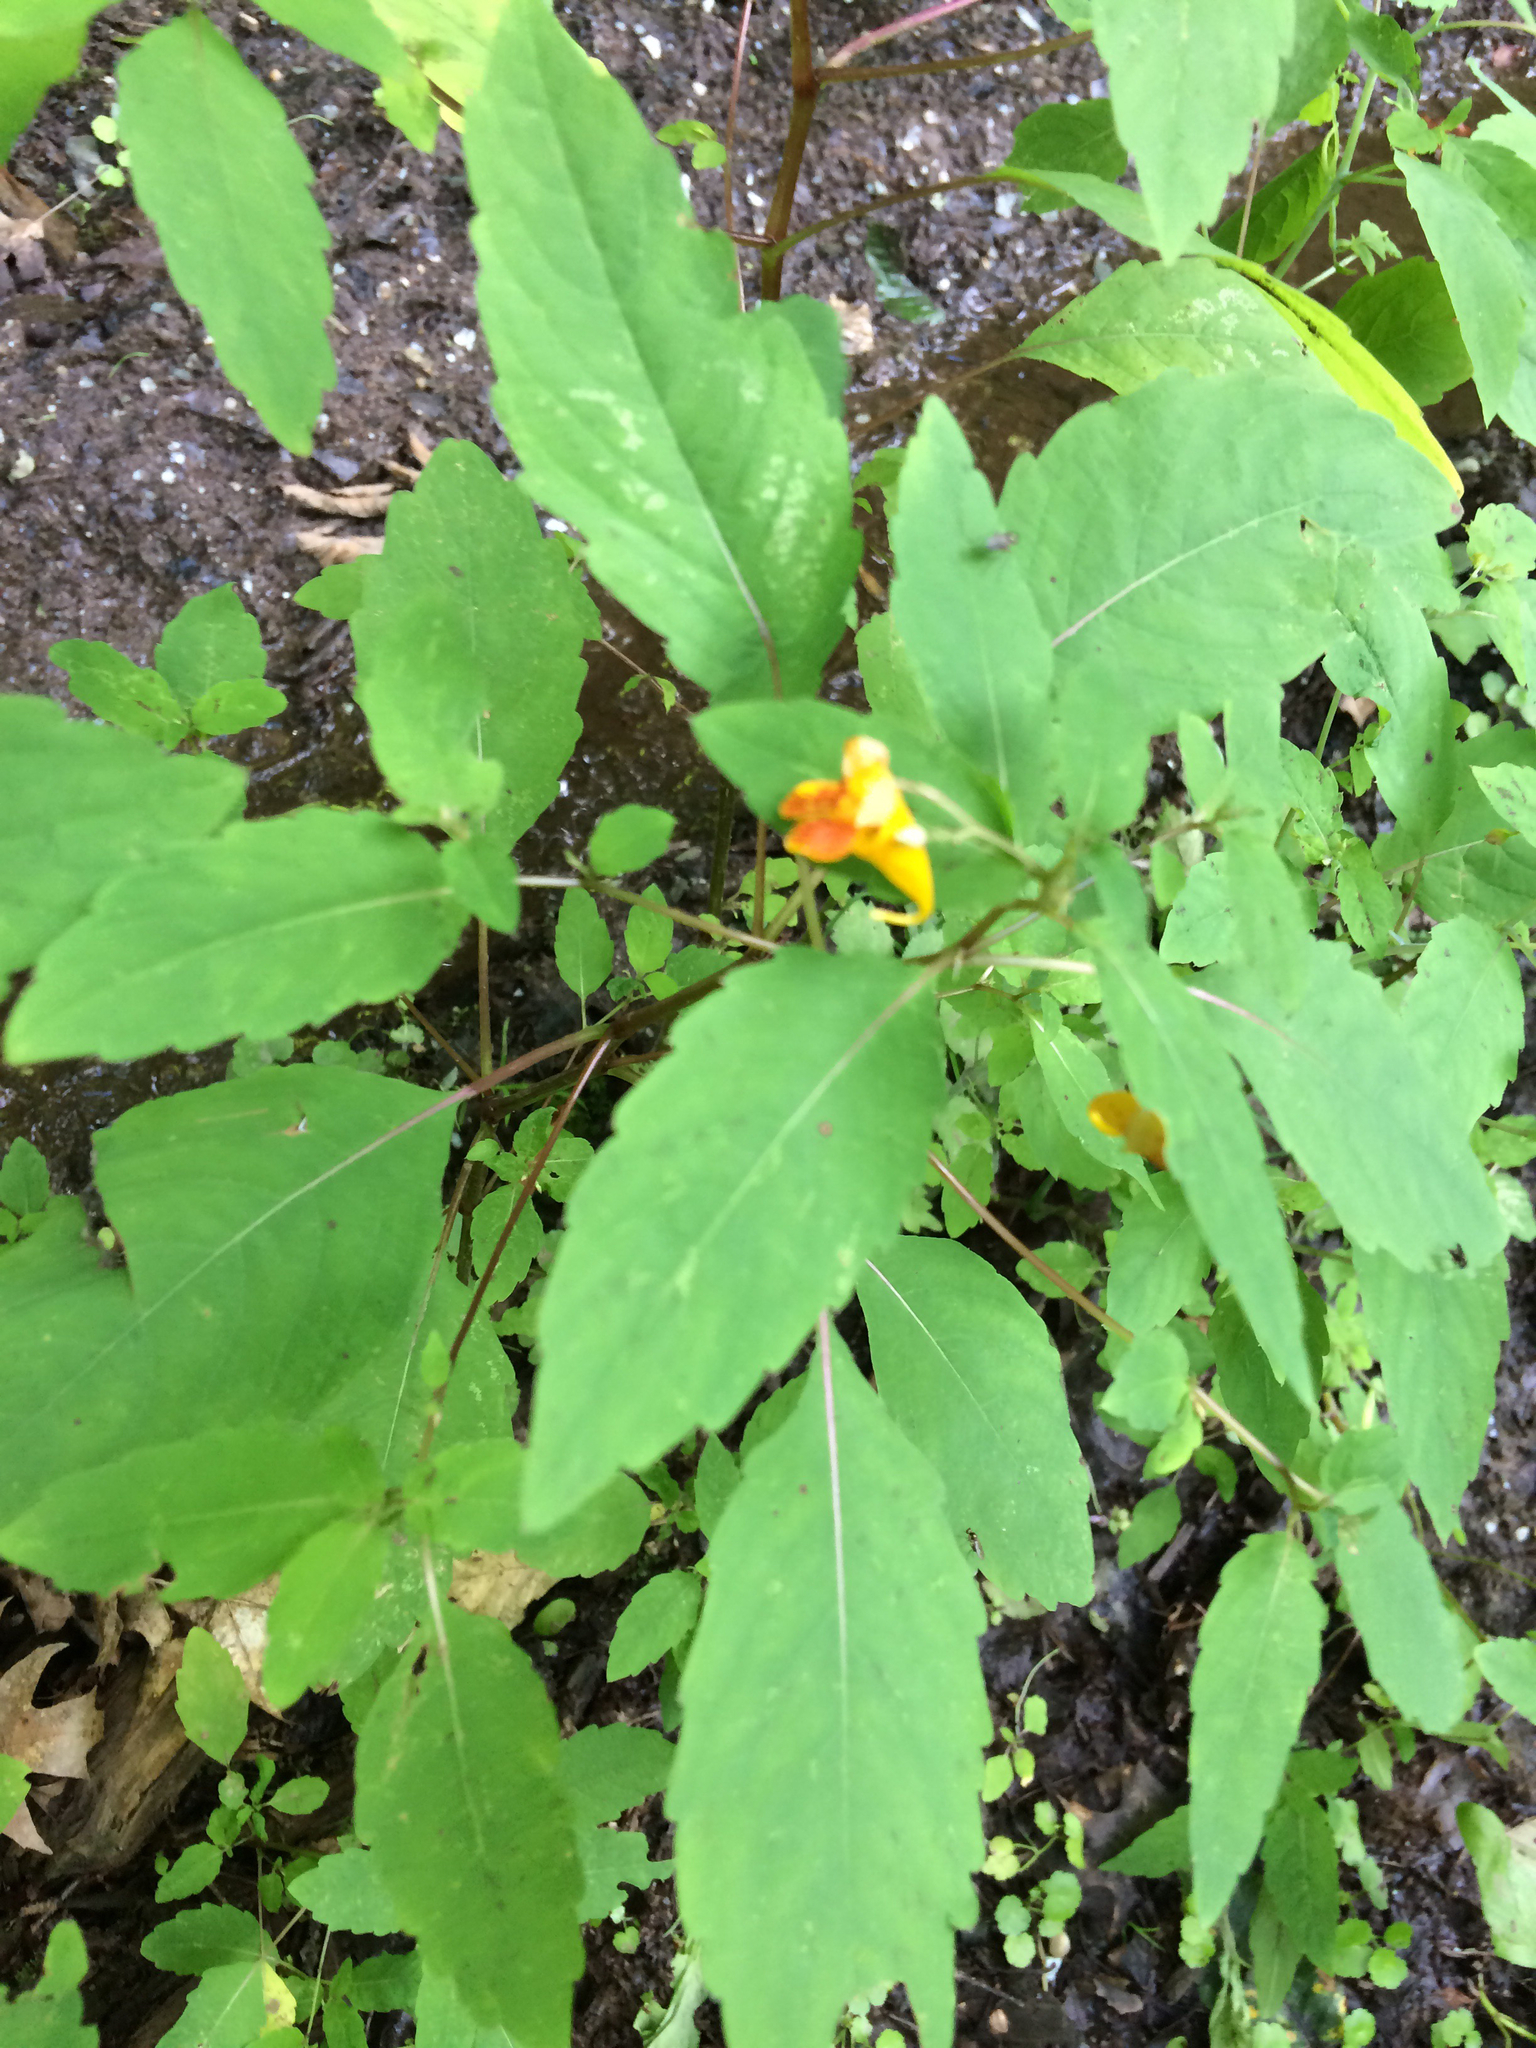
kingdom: Plantae
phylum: Tracheophyta
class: Magnoliopsida
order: Ericales
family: Balsaminaceae
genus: Impatiens
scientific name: Impatiens capensis
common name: Orange balsam
